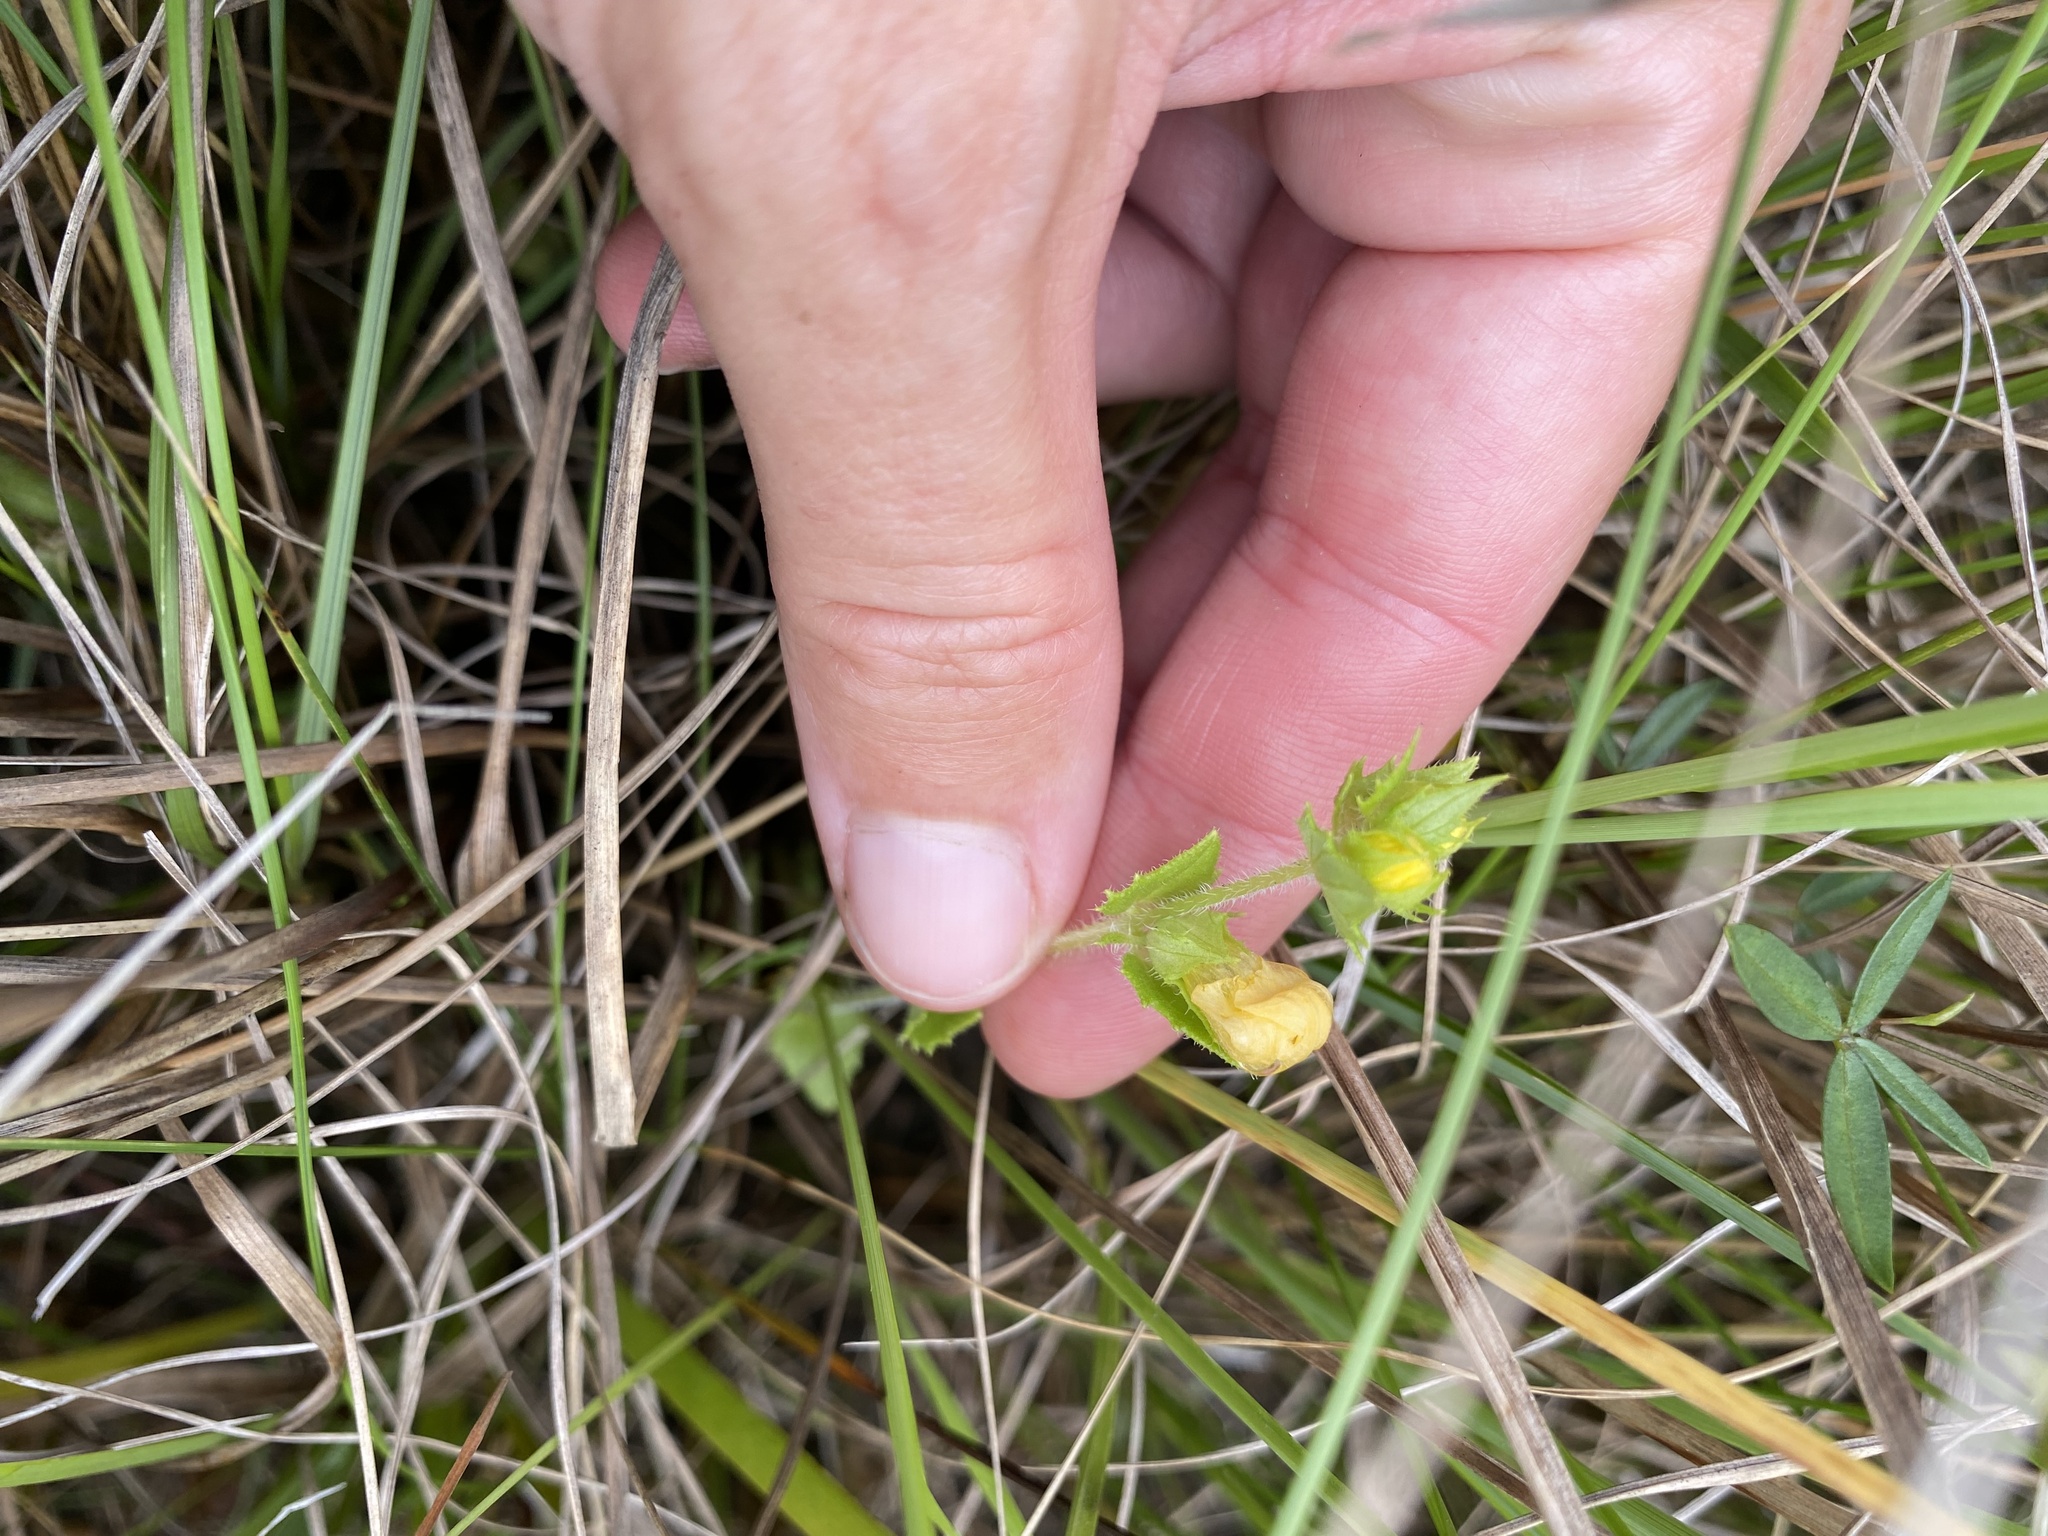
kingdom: Plantae
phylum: Tracheophyta
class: Magnoliopsida
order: Lamiales
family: Orobanchaceae
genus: Alectra
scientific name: Alectra sessiliflora
